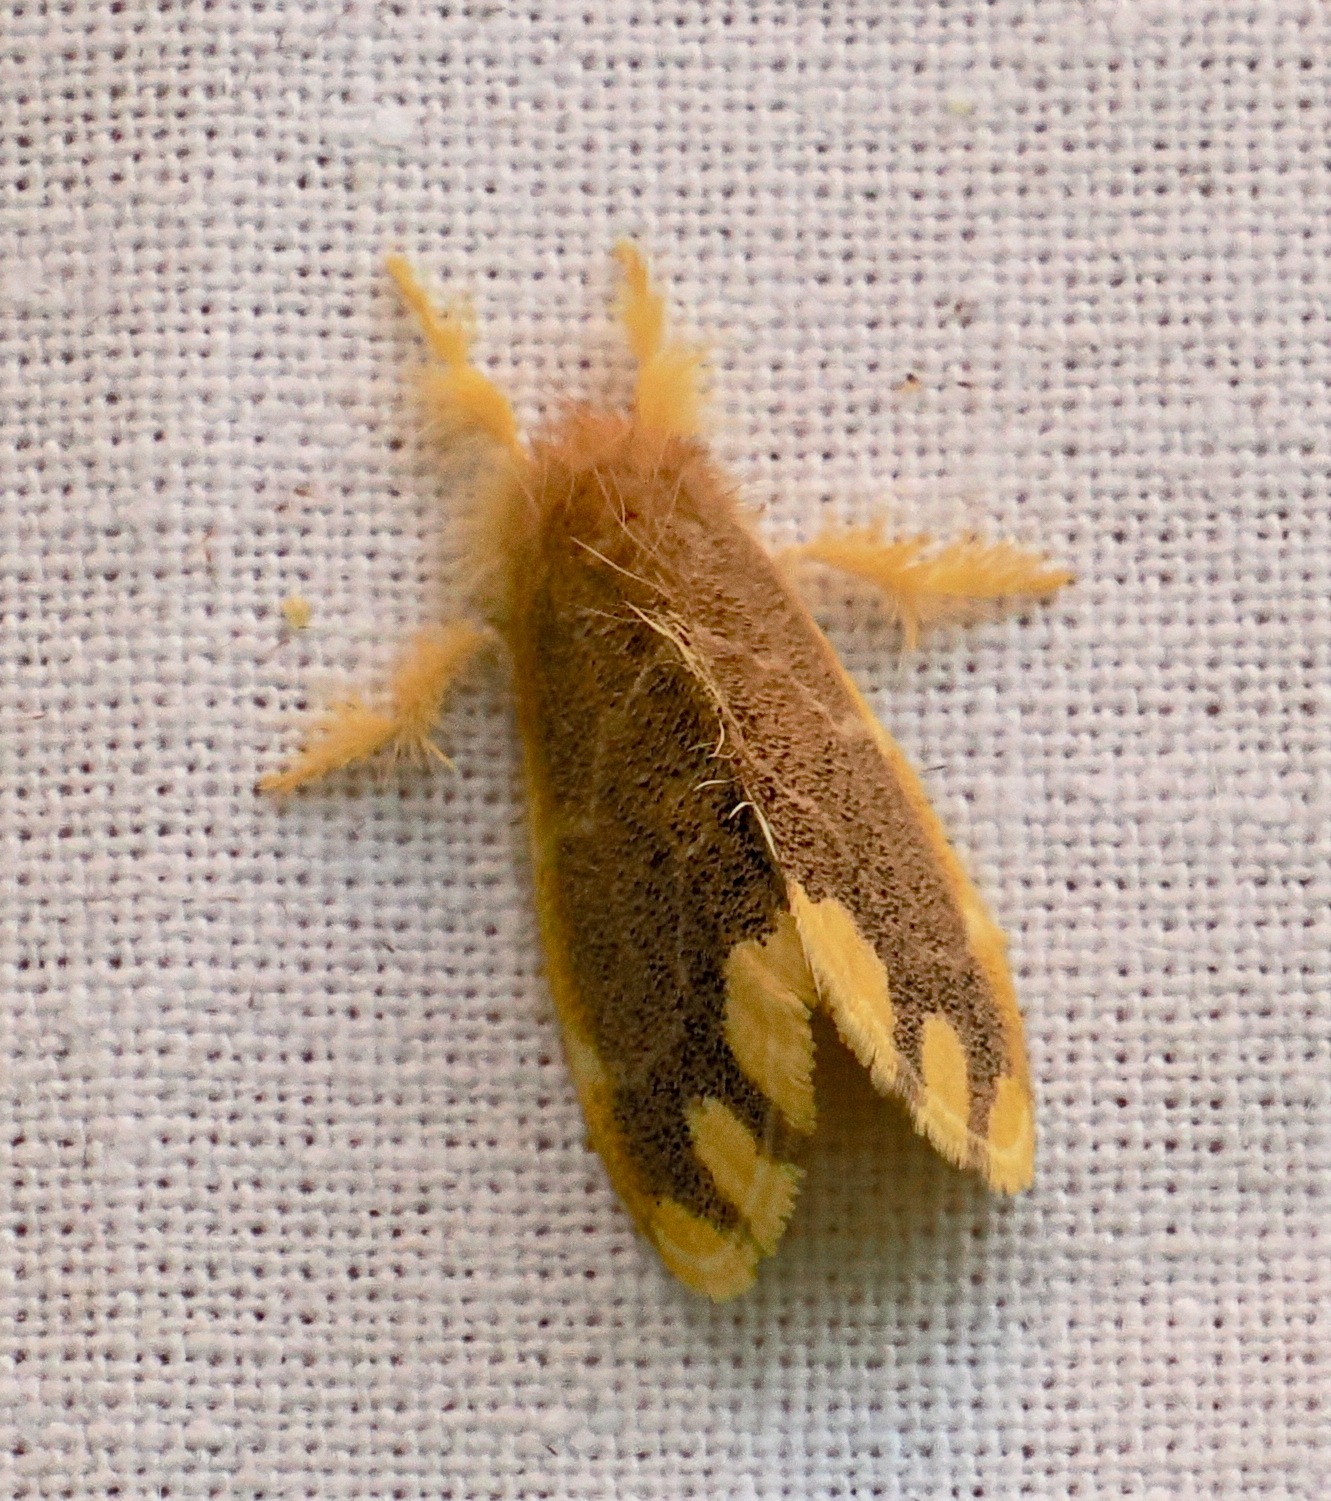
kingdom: Animalia
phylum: Arthropoda
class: Insecta
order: Lepidoptera
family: Erebidae
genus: Orvasca
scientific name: Orvasca subnotata
